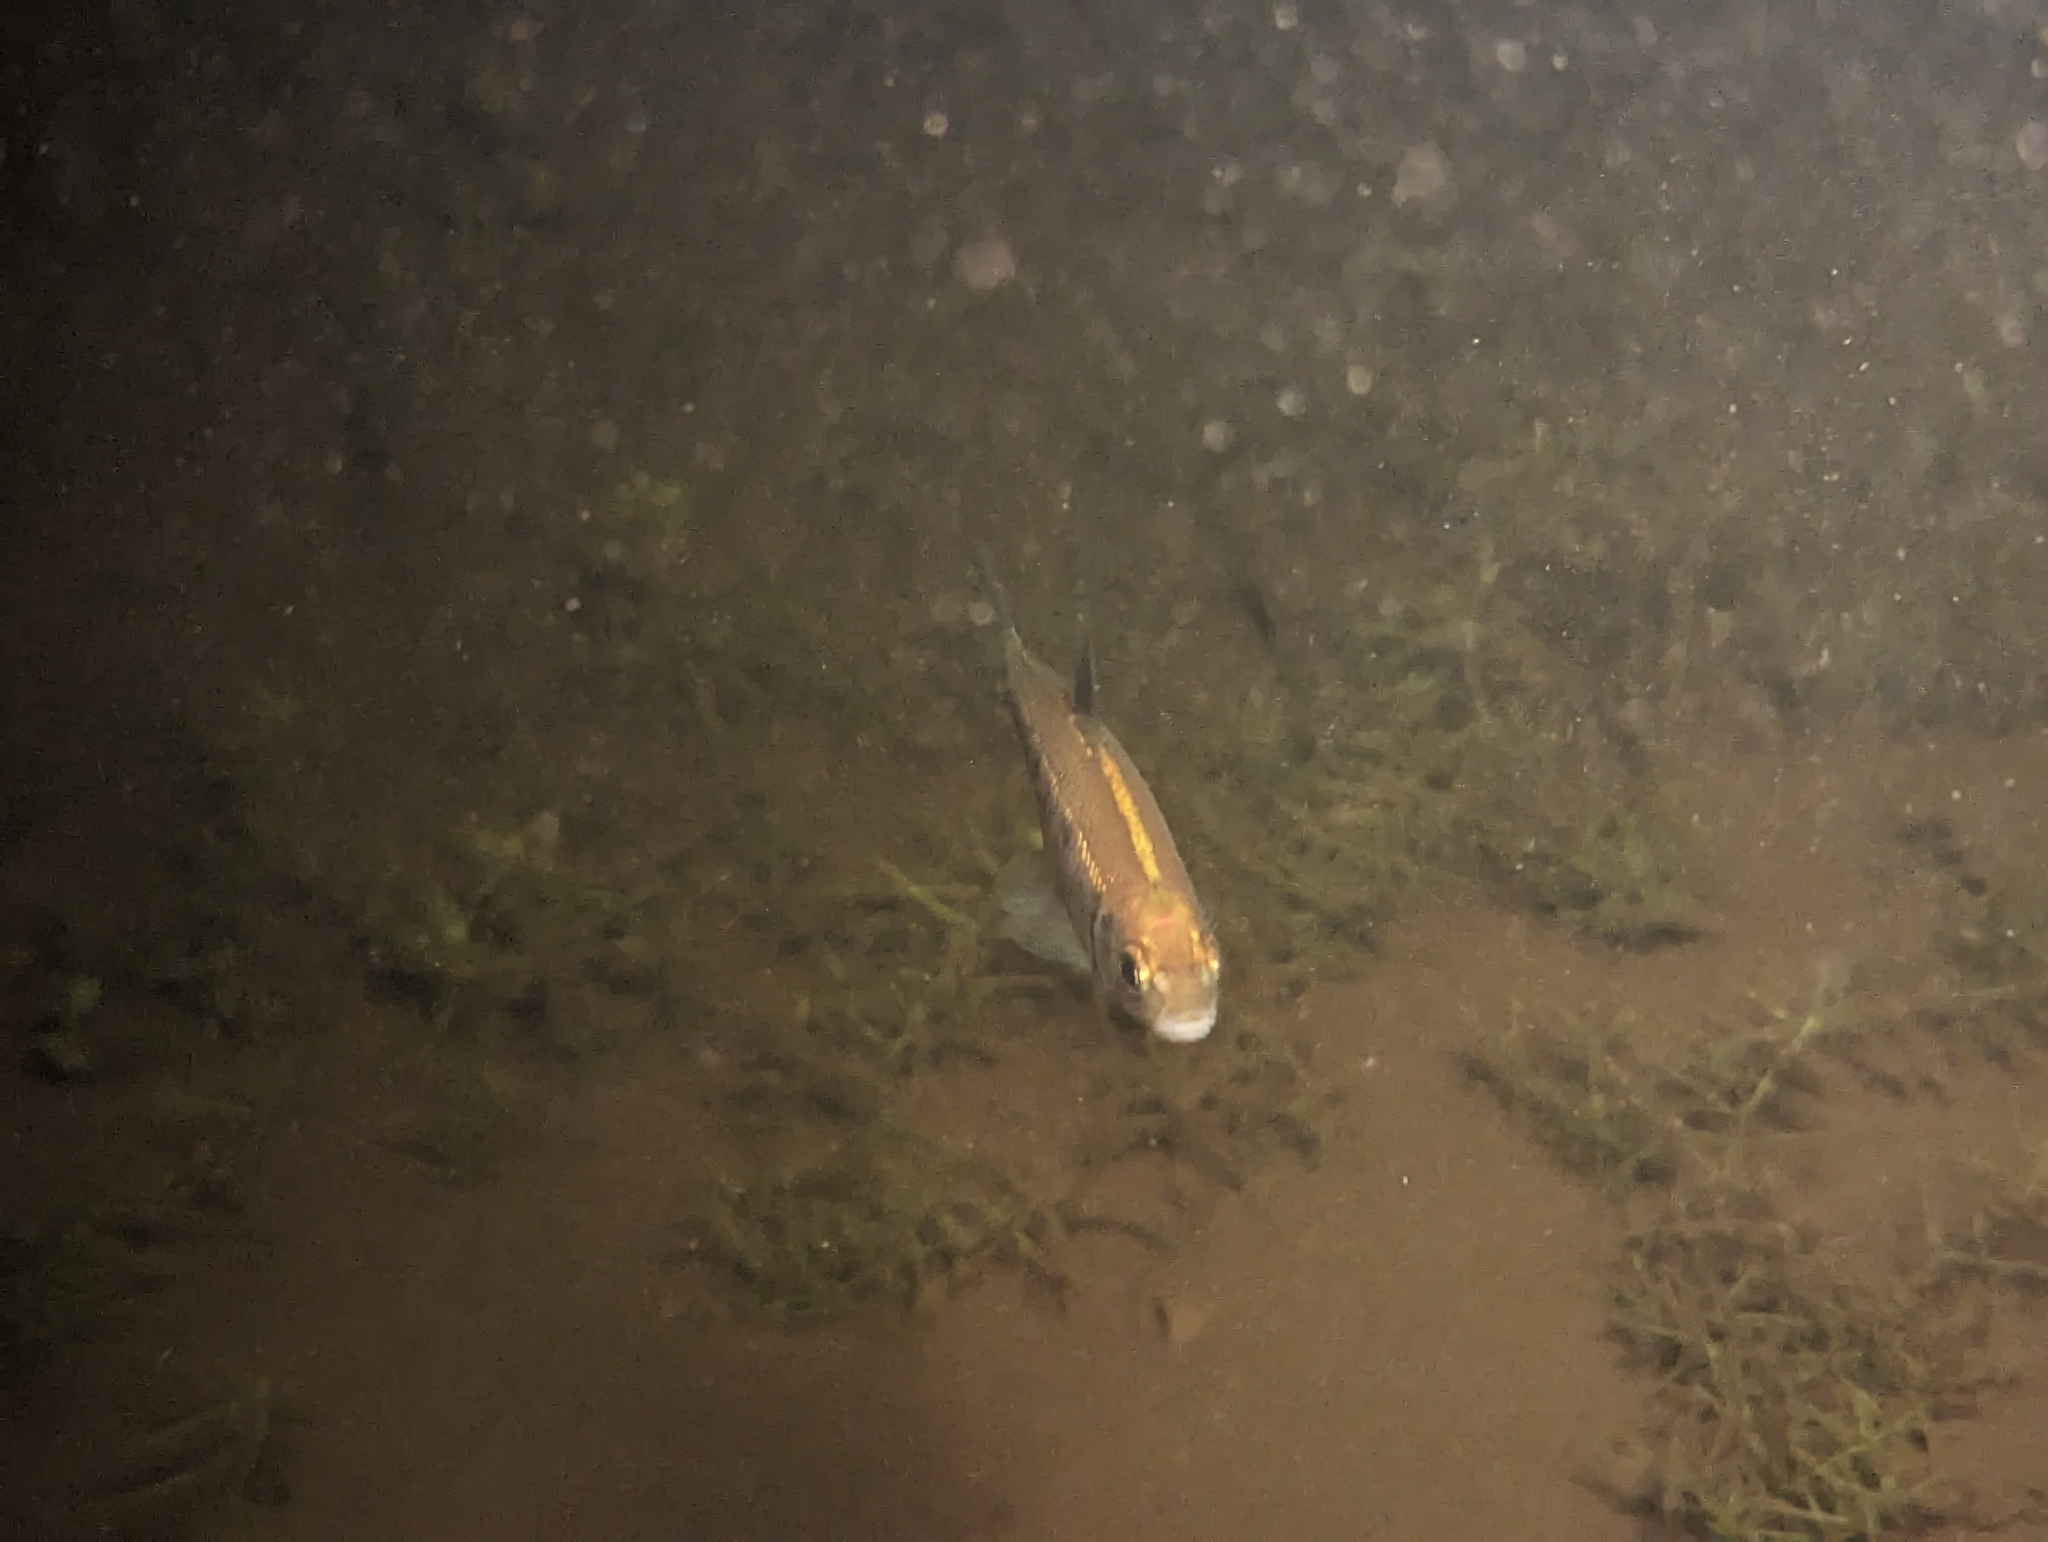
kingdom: Animalia
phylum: Chordata
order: Cypriniformes
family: Cyprinidae
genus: Luxilus
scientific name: Luxilus cornutus
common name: Common shiner
